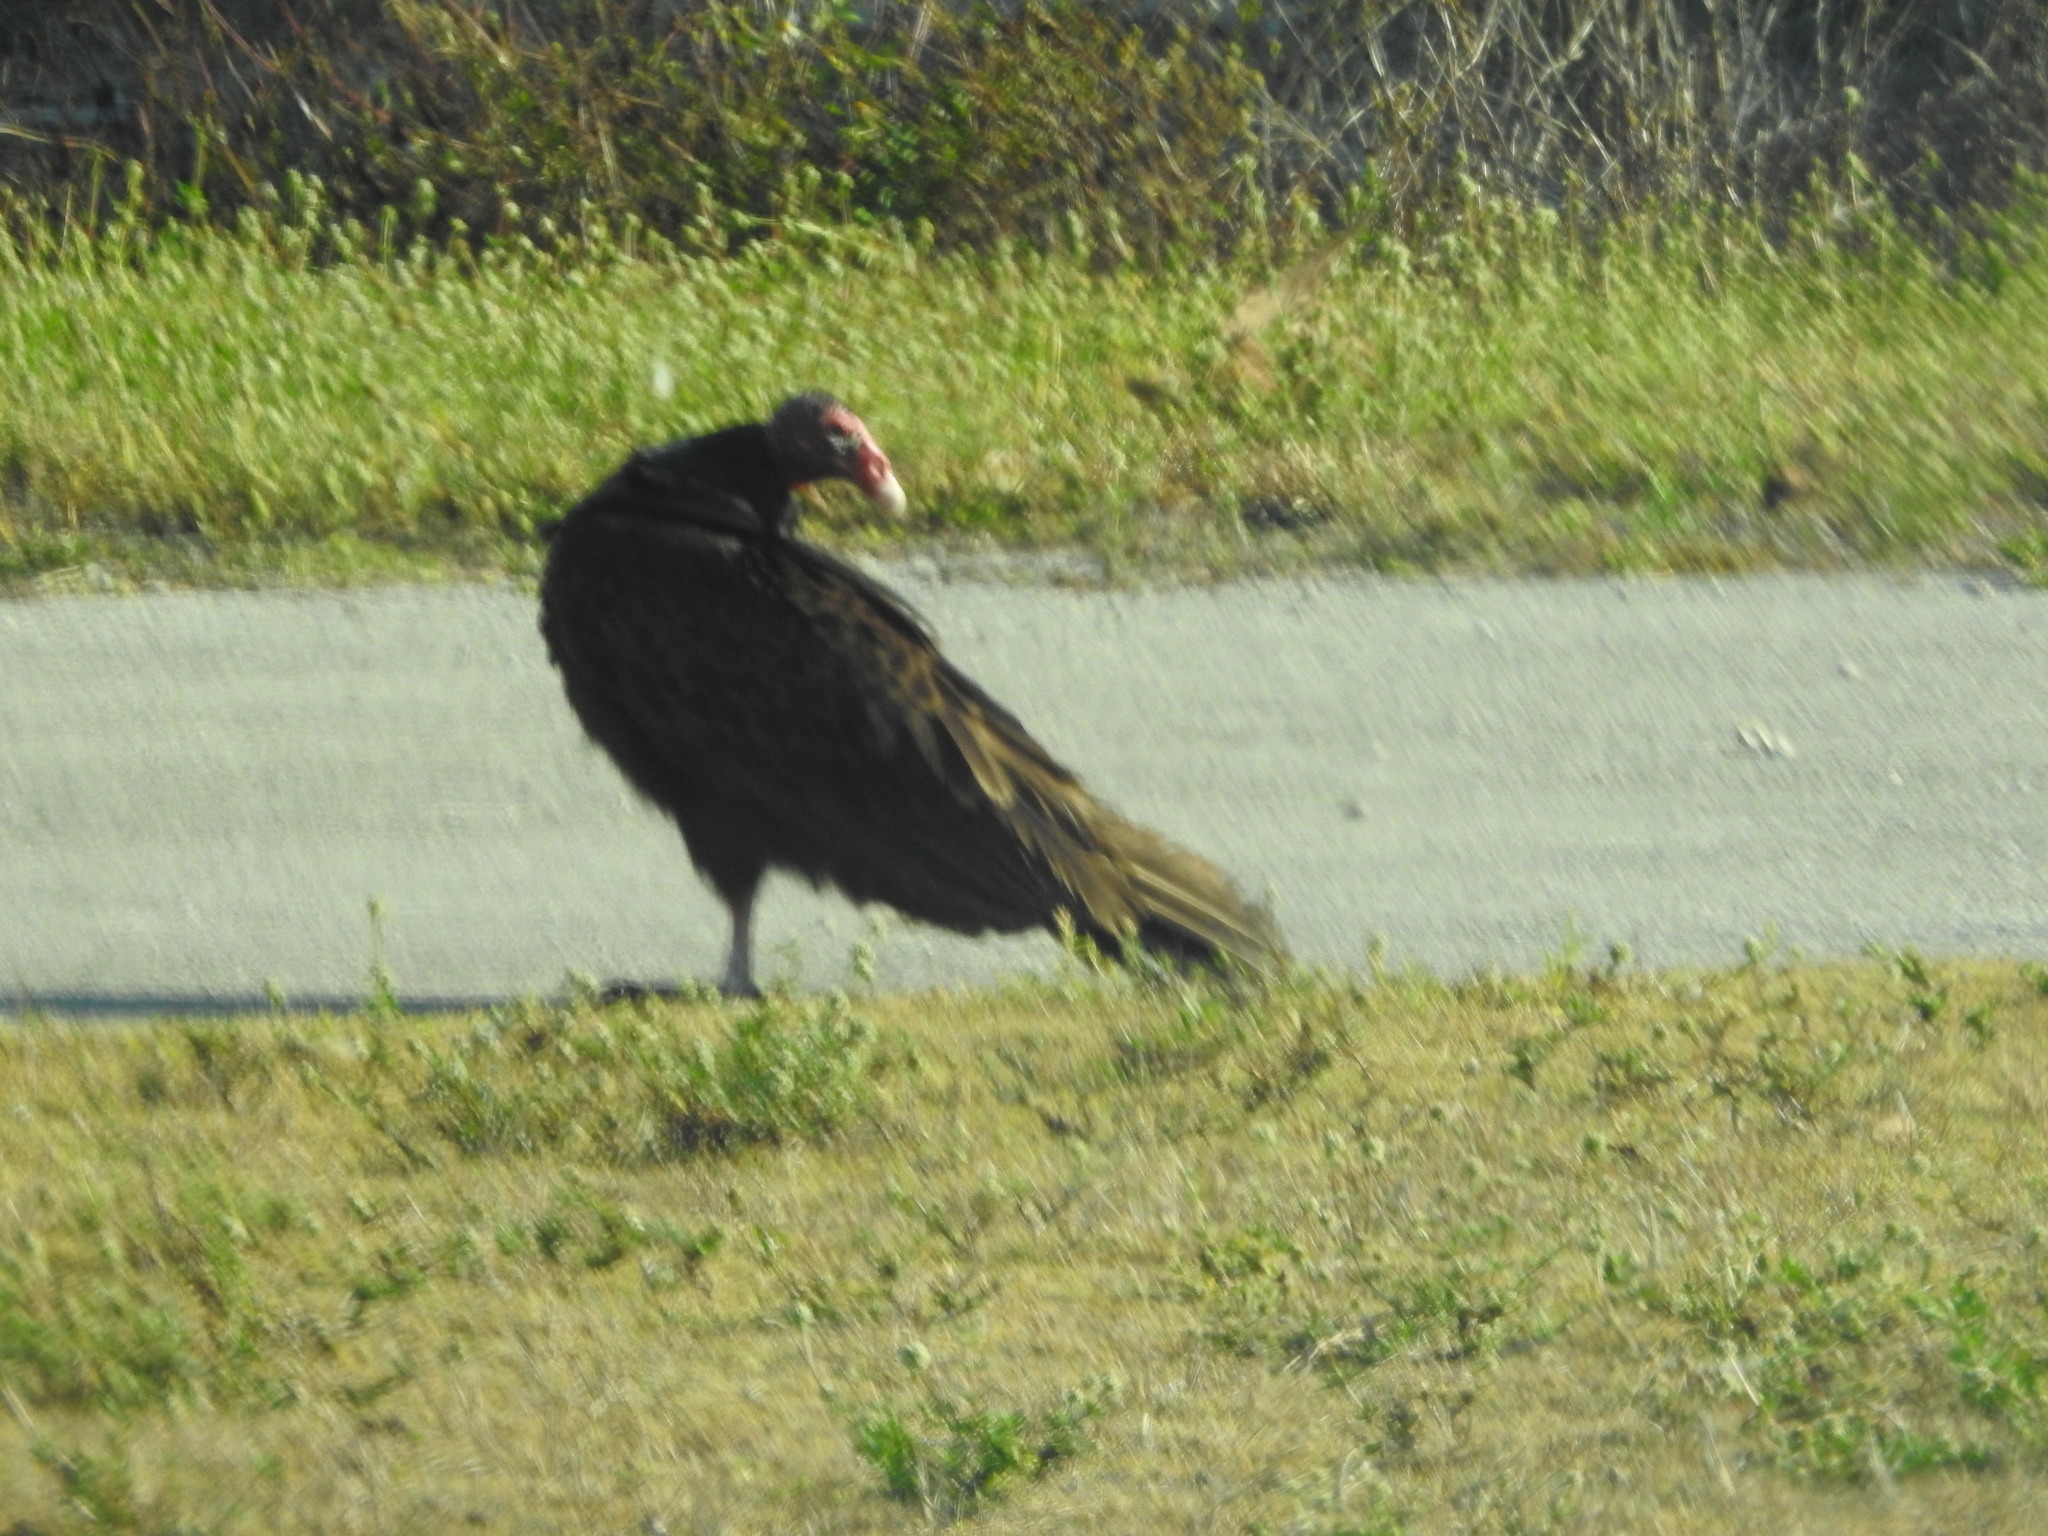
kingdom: Animalia
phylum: Chordata
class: Aves
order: Accipitriformes
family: Cathartidae
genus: Cathartes
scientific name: Cathartes aura
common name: Turkey vulture
